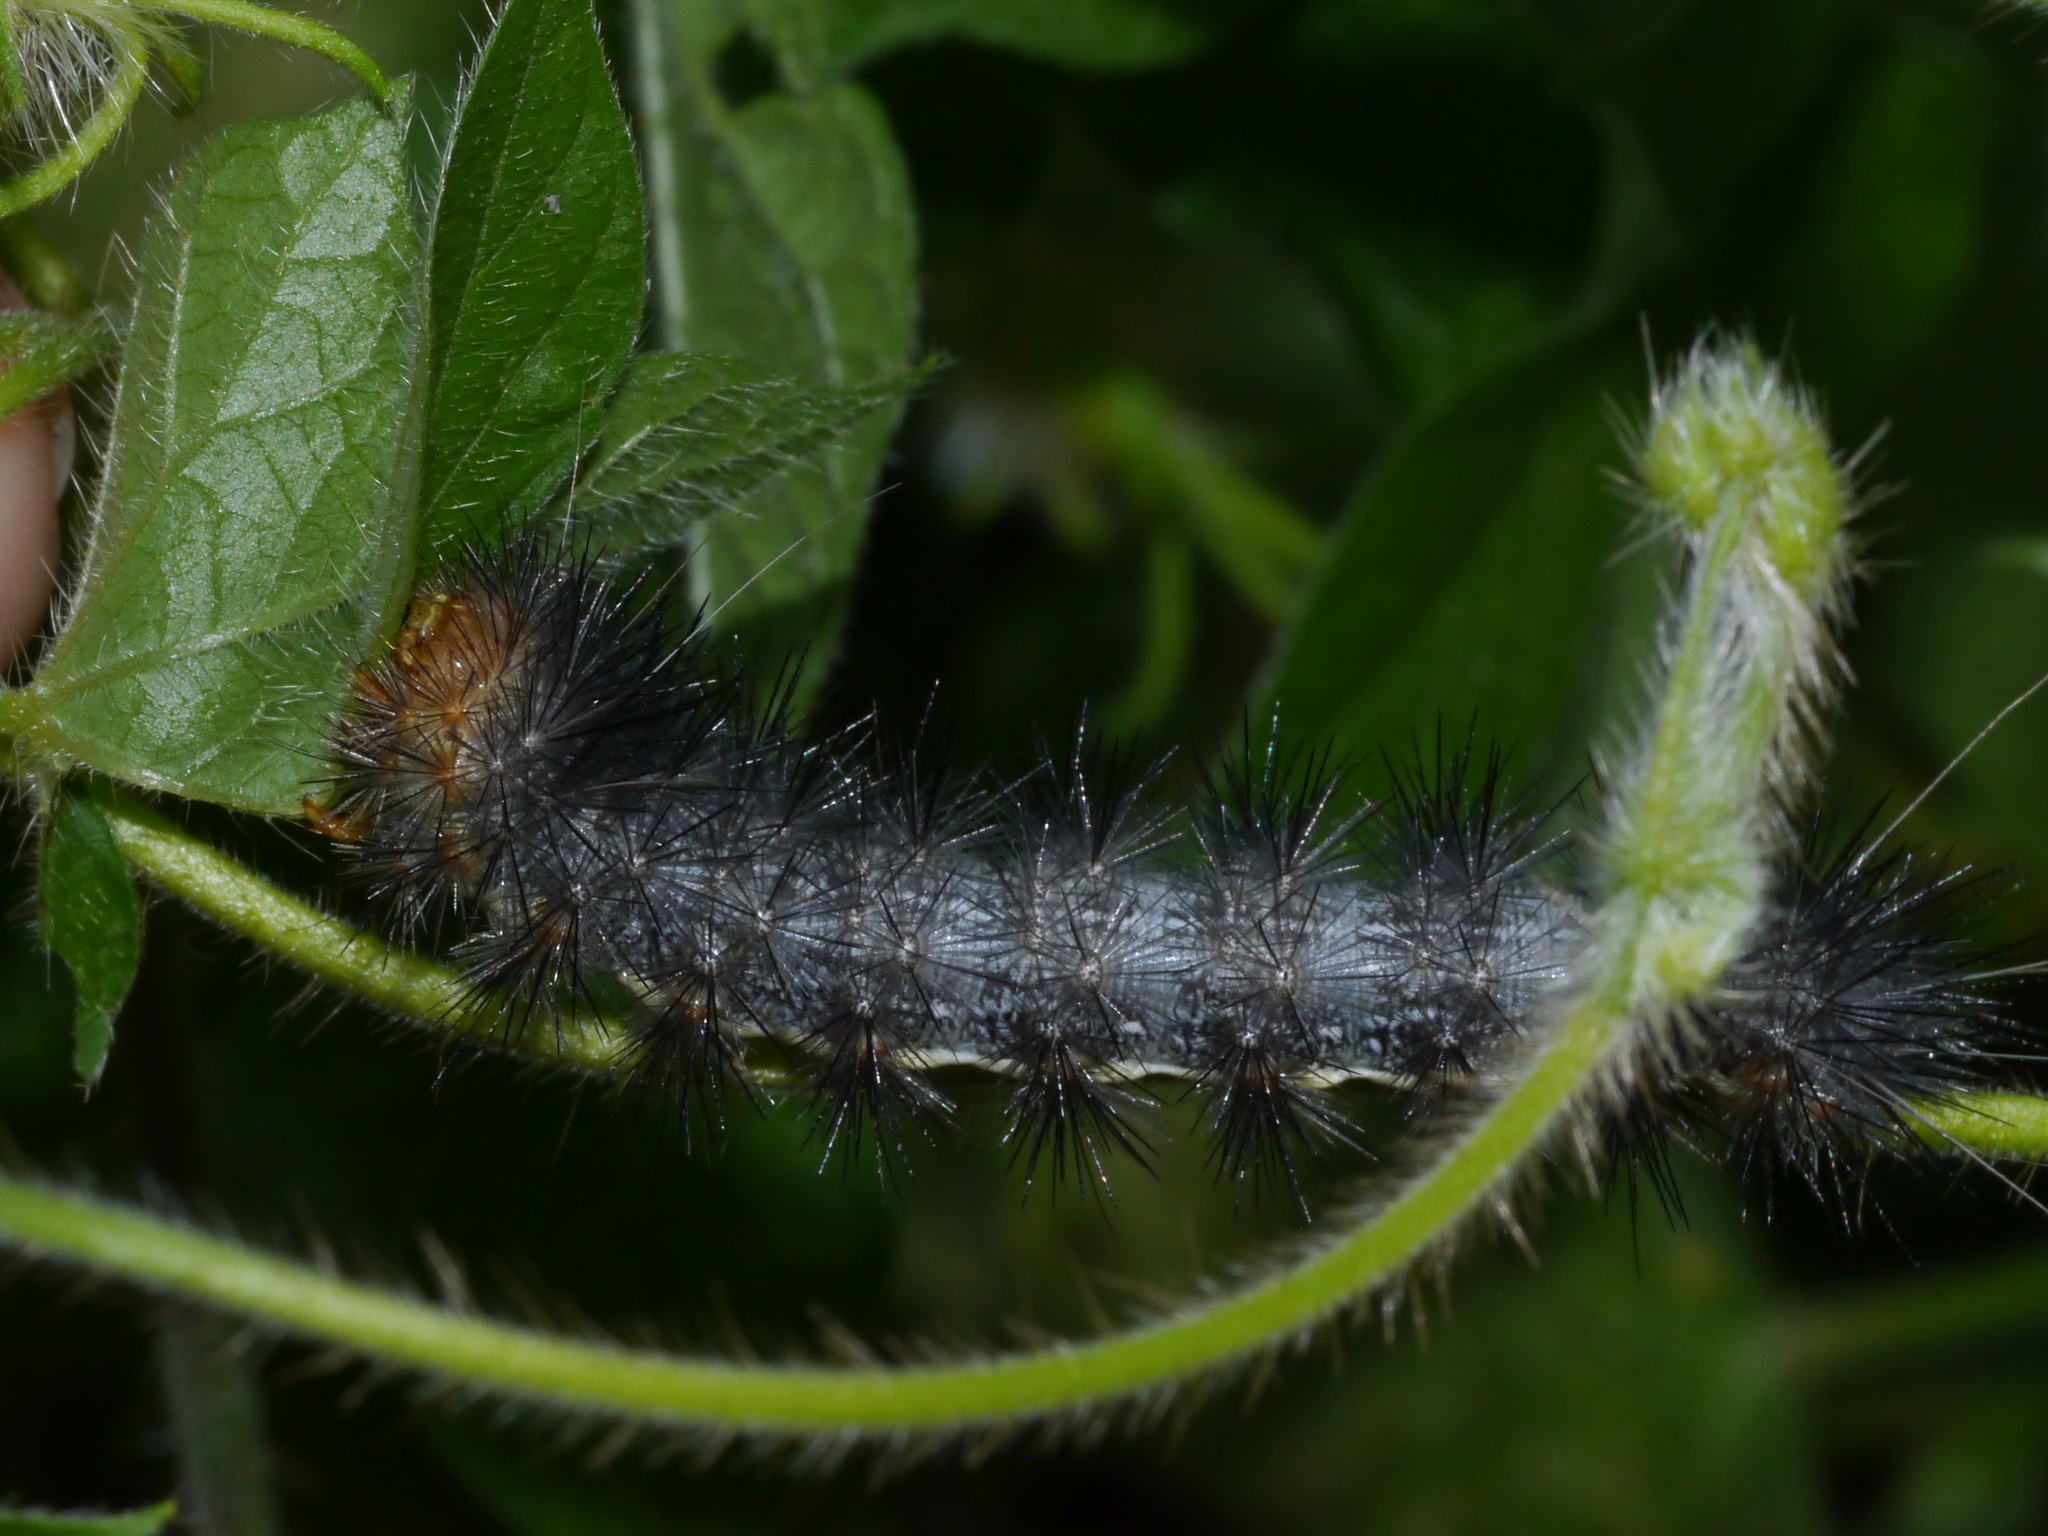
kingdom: Animalia
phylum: Arthropoda
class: Insecta
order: Lepidoptera
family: Erebidae
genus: Hypercompe
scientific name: Hypercompe suffusa
